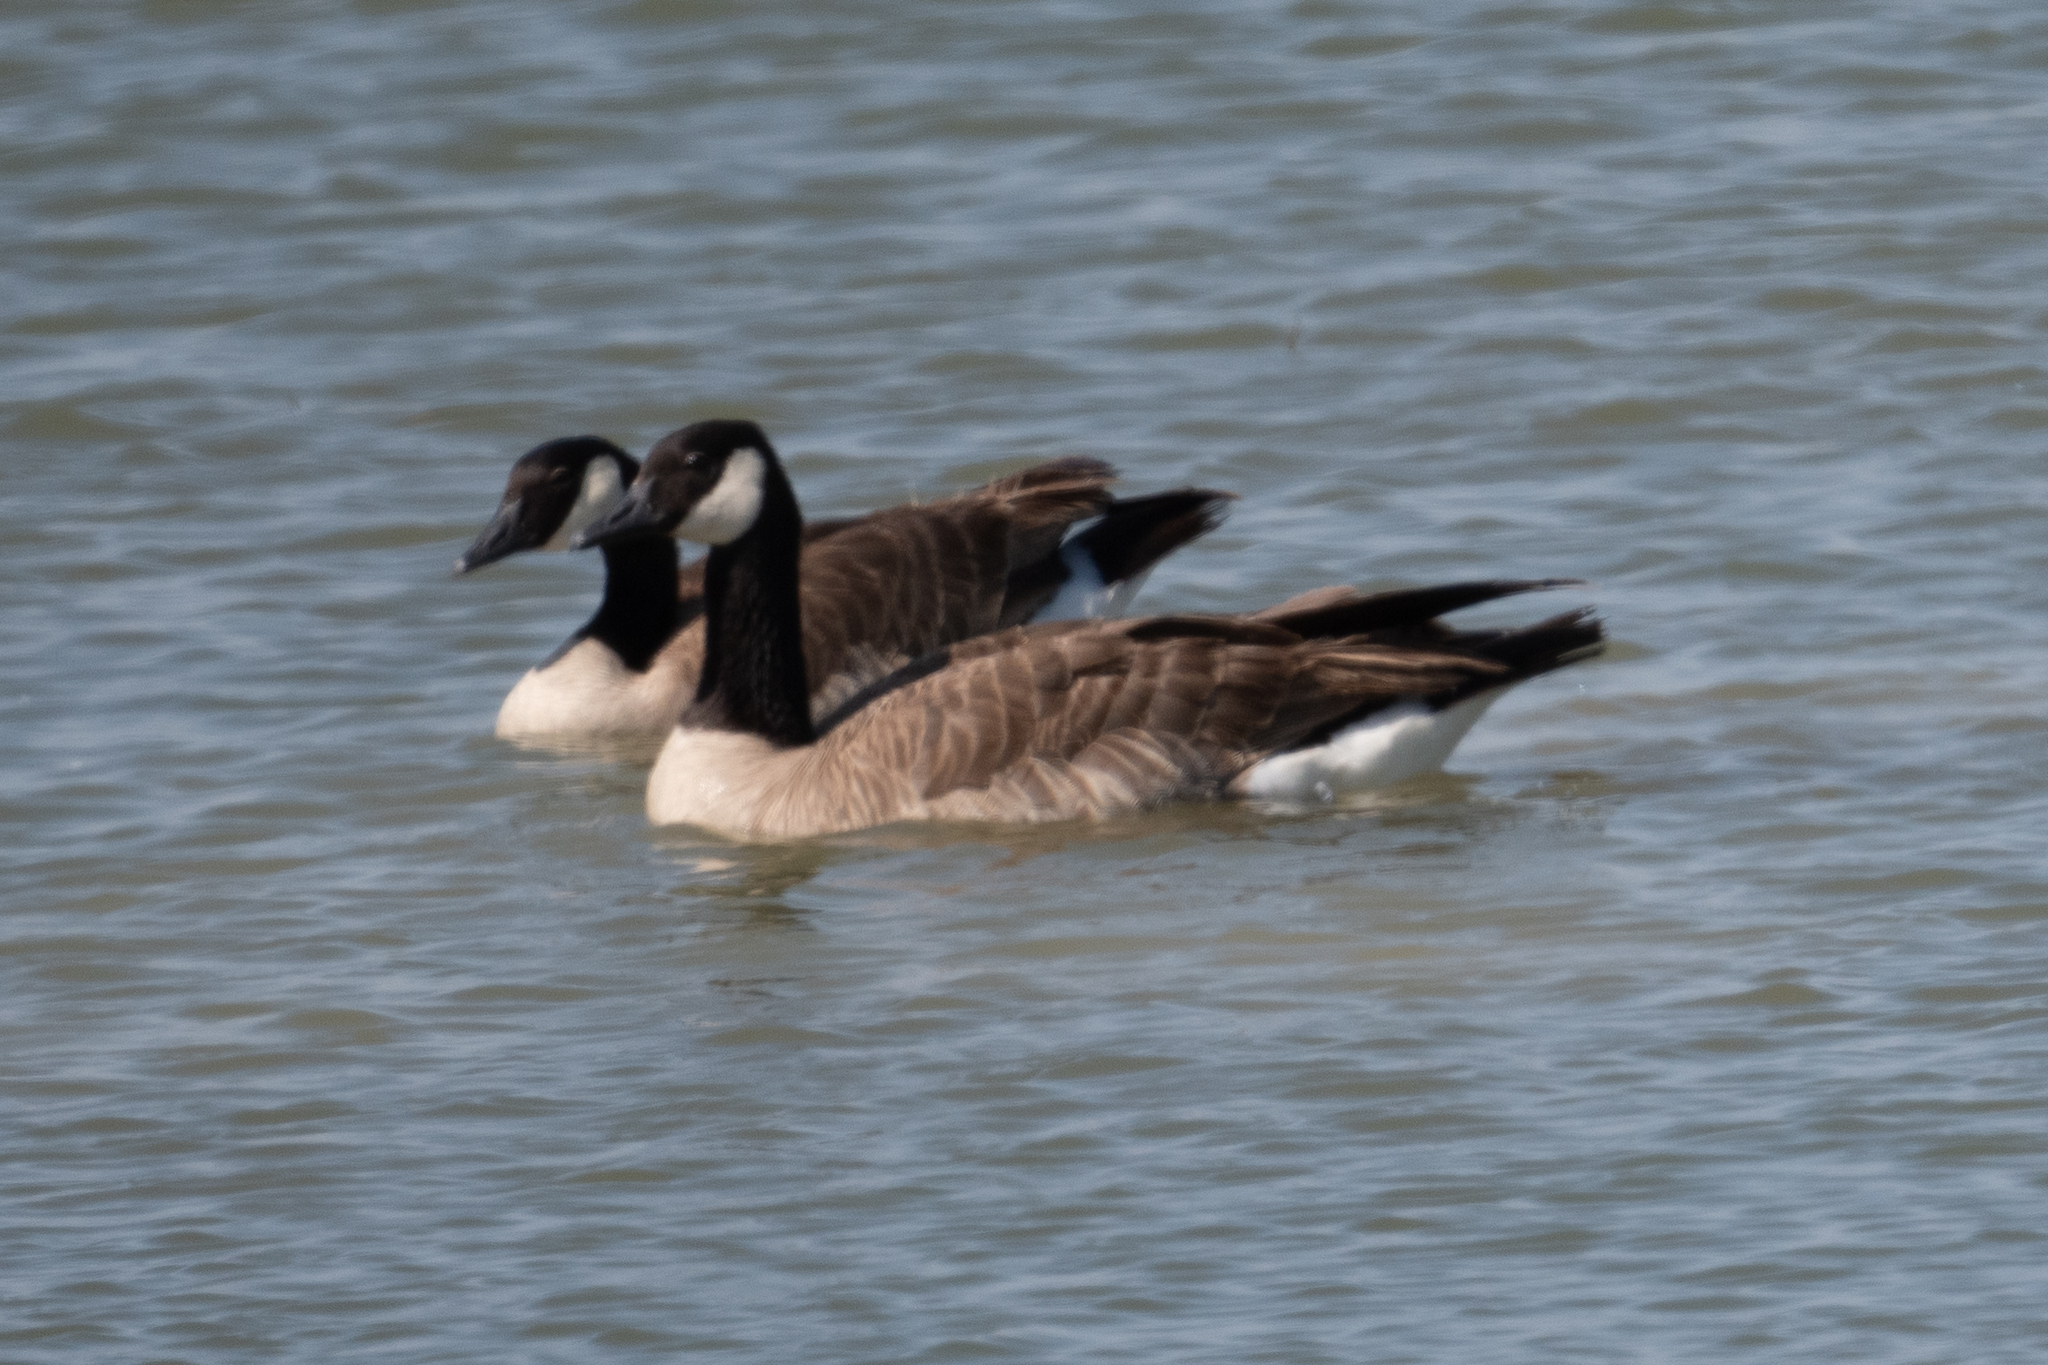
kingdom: Animalia
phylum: Chordata
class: Aves
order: Anseriformes
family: Anatidae
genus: Branta
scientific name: Branta canadensis
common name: Canada goose
